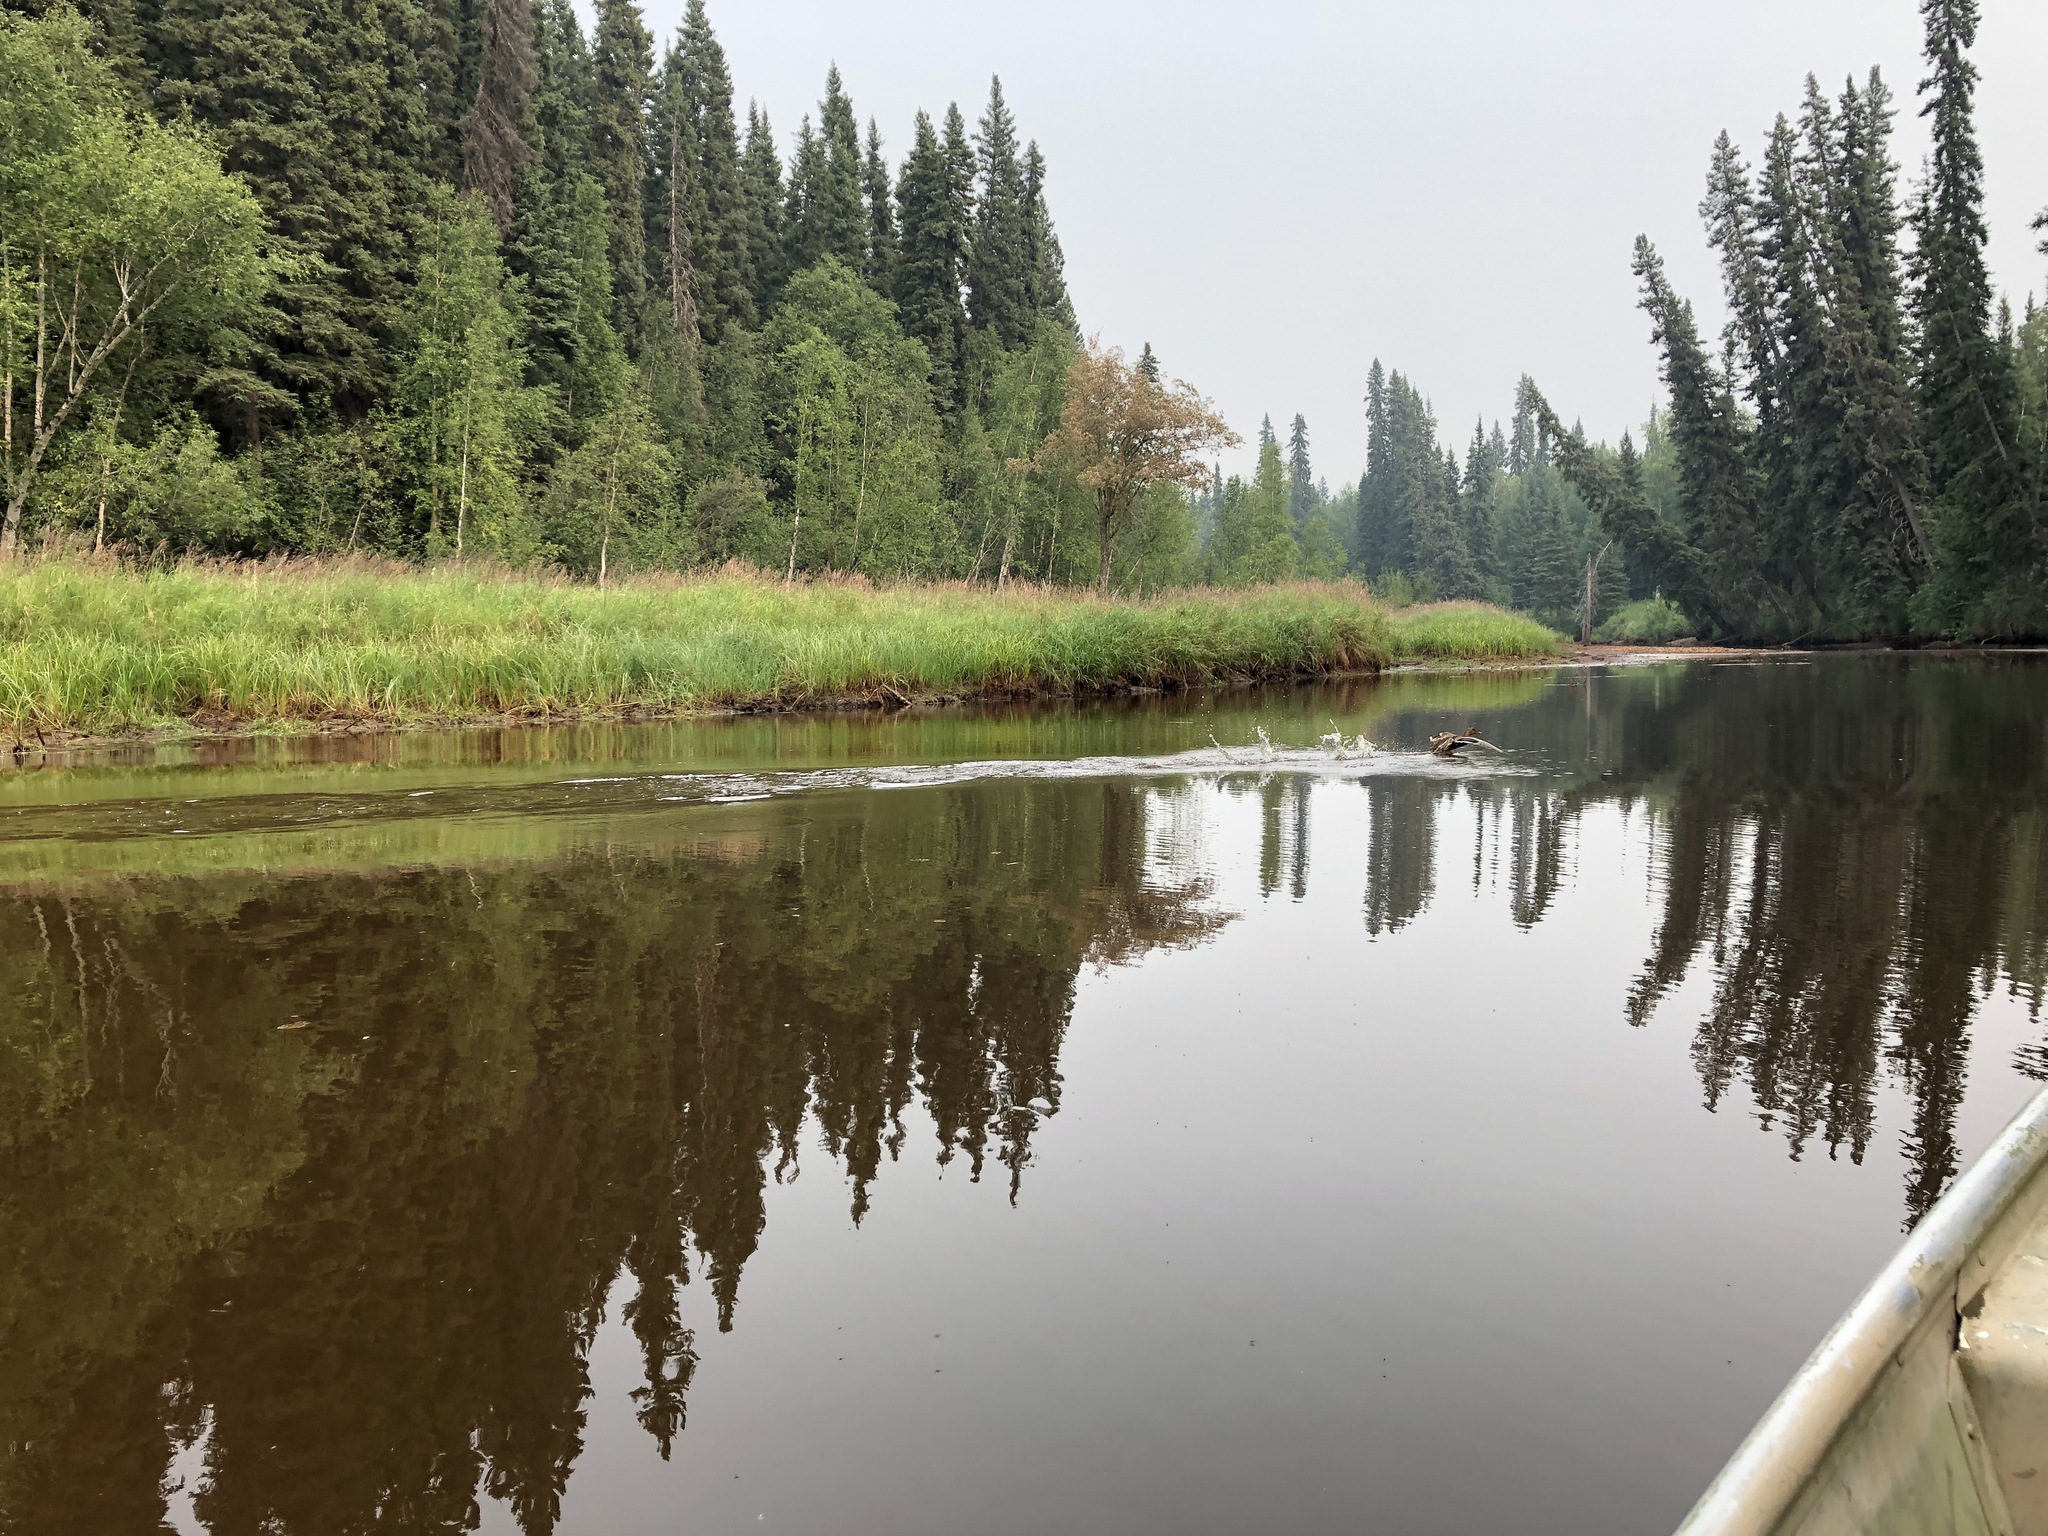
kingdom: Animalia
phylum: Chordata
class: Aves
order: Anseriformes
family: Anatidae
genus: Anas
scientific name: Anas platyrhynchos
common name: Mallard
